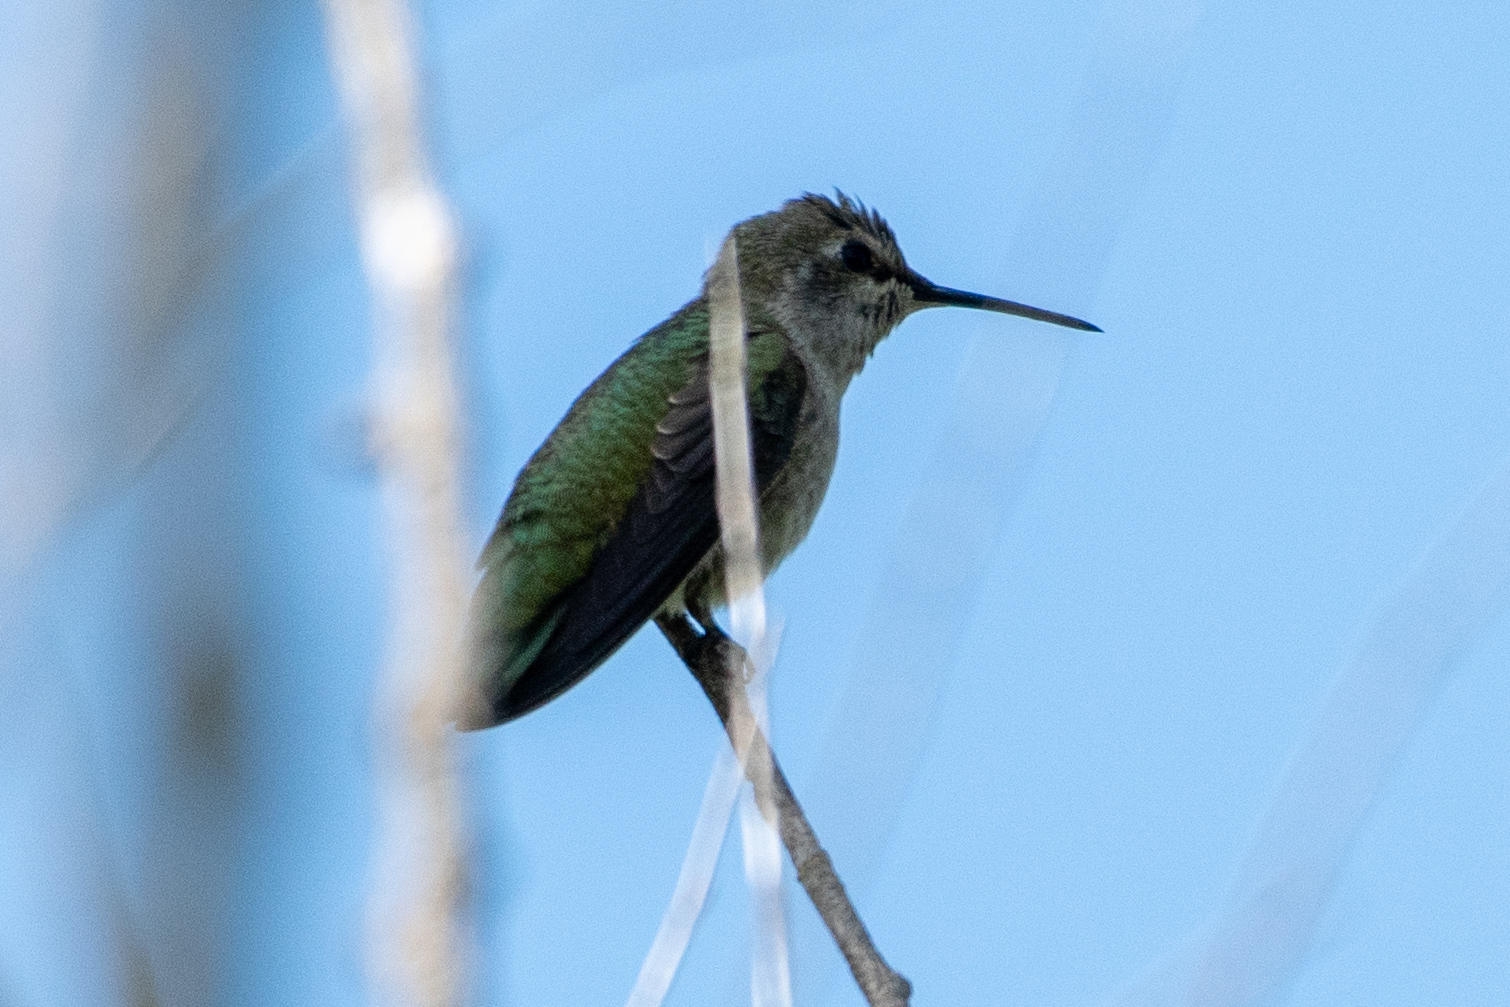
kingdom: Animalia
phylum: Chordata
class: Aves
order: Apodiformes
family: Trochilidae
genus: Calypte
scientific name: Calypte anna
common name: Anna's hummingbird
